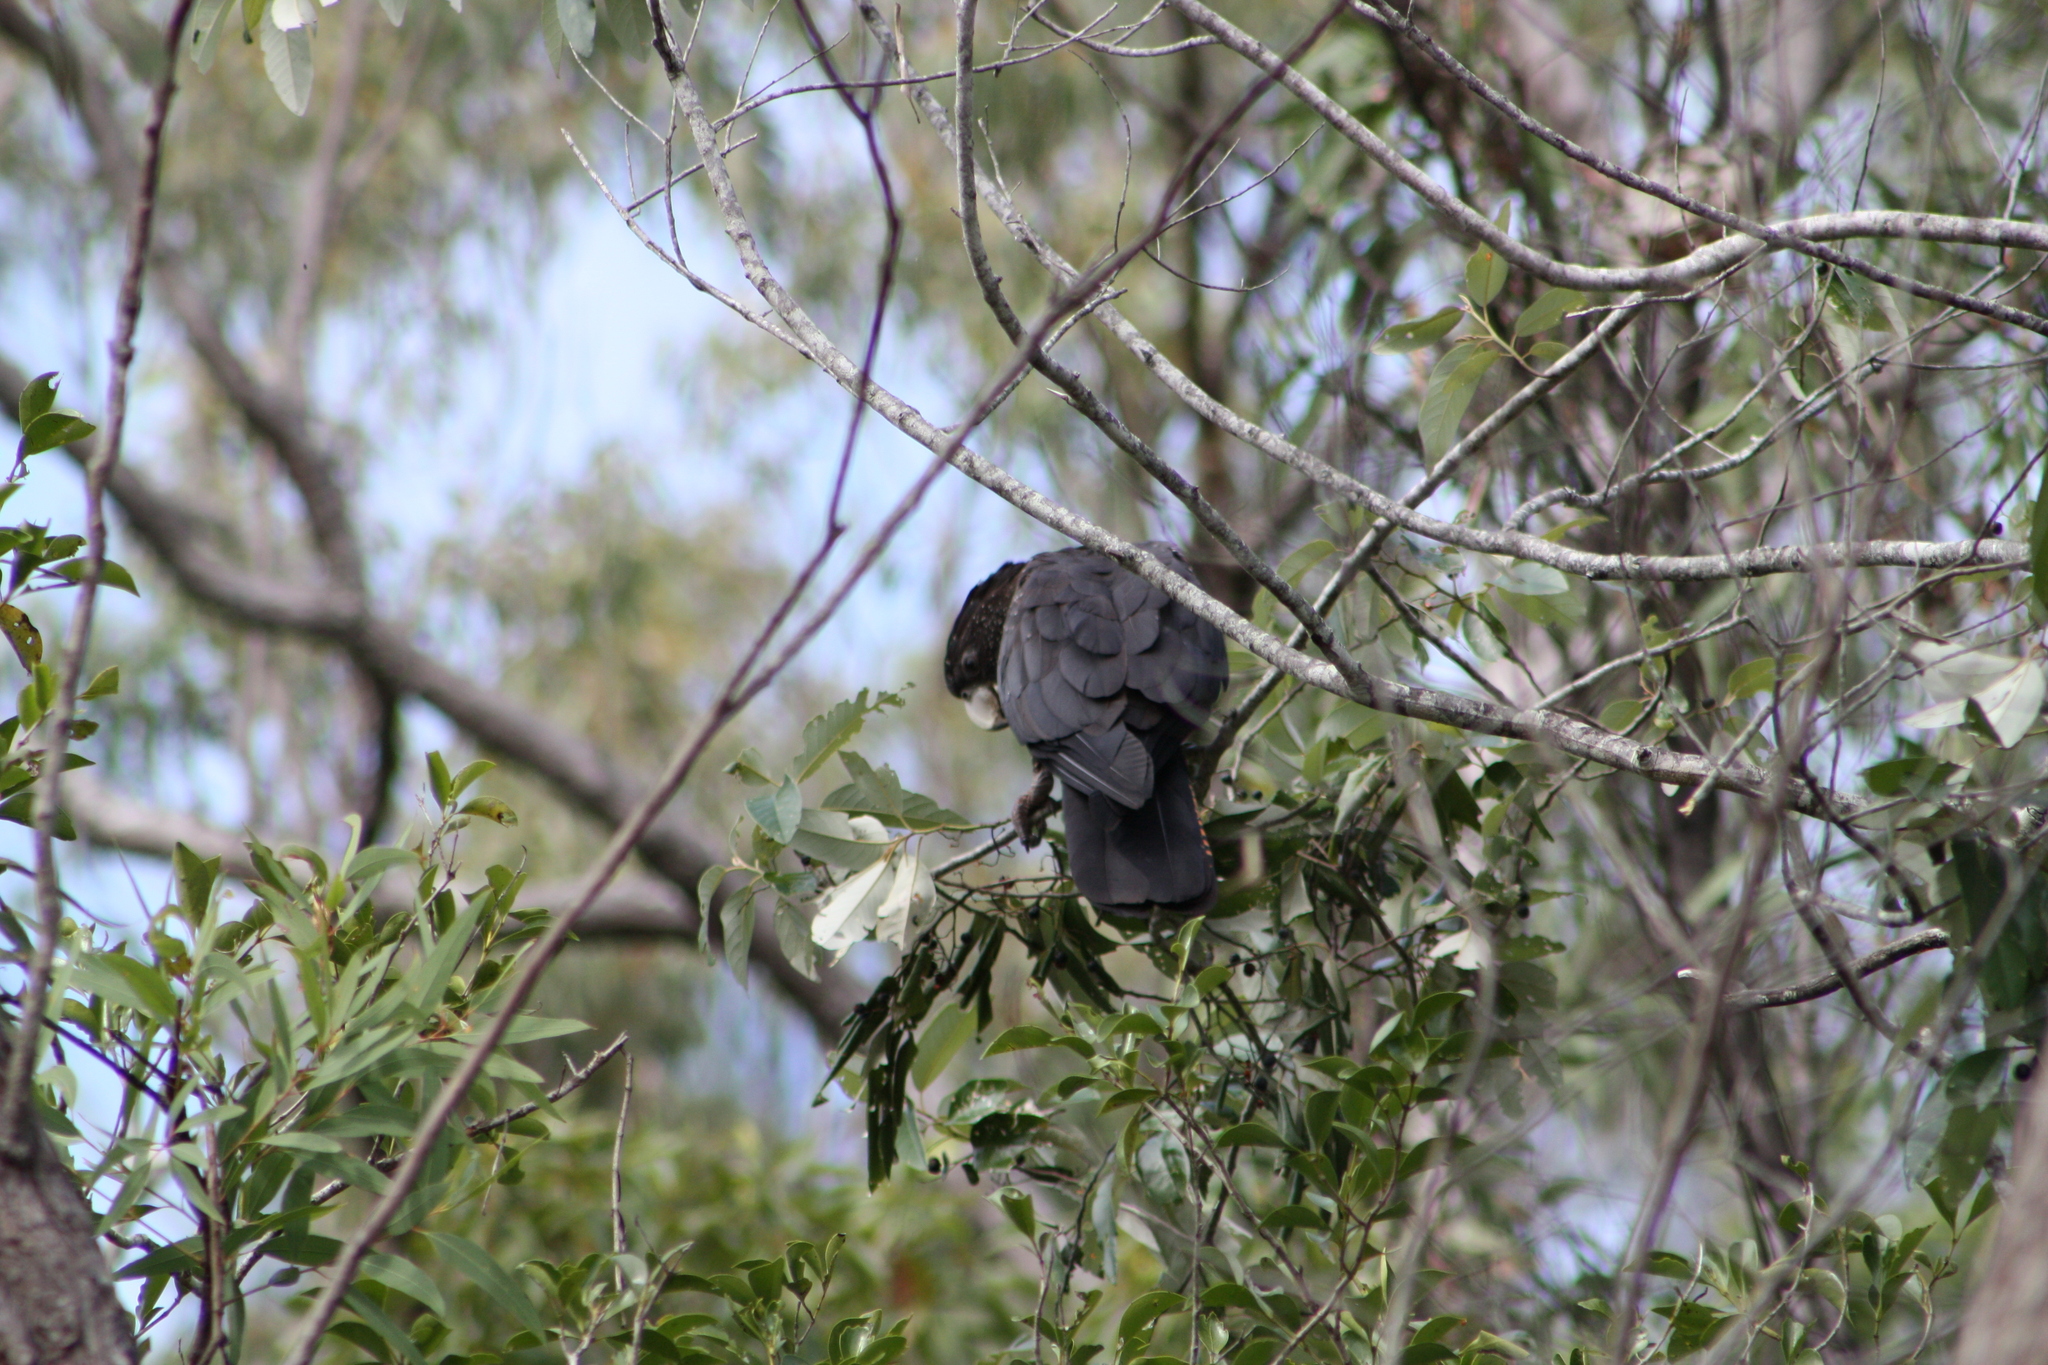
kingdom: Animalia
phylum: Chordata
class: Aves
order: Psittaciformes
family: Psittacidae
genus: Calyptorhynchus
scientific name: Calyptorhynchus banksii
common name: Red-tailed black cockatoo
